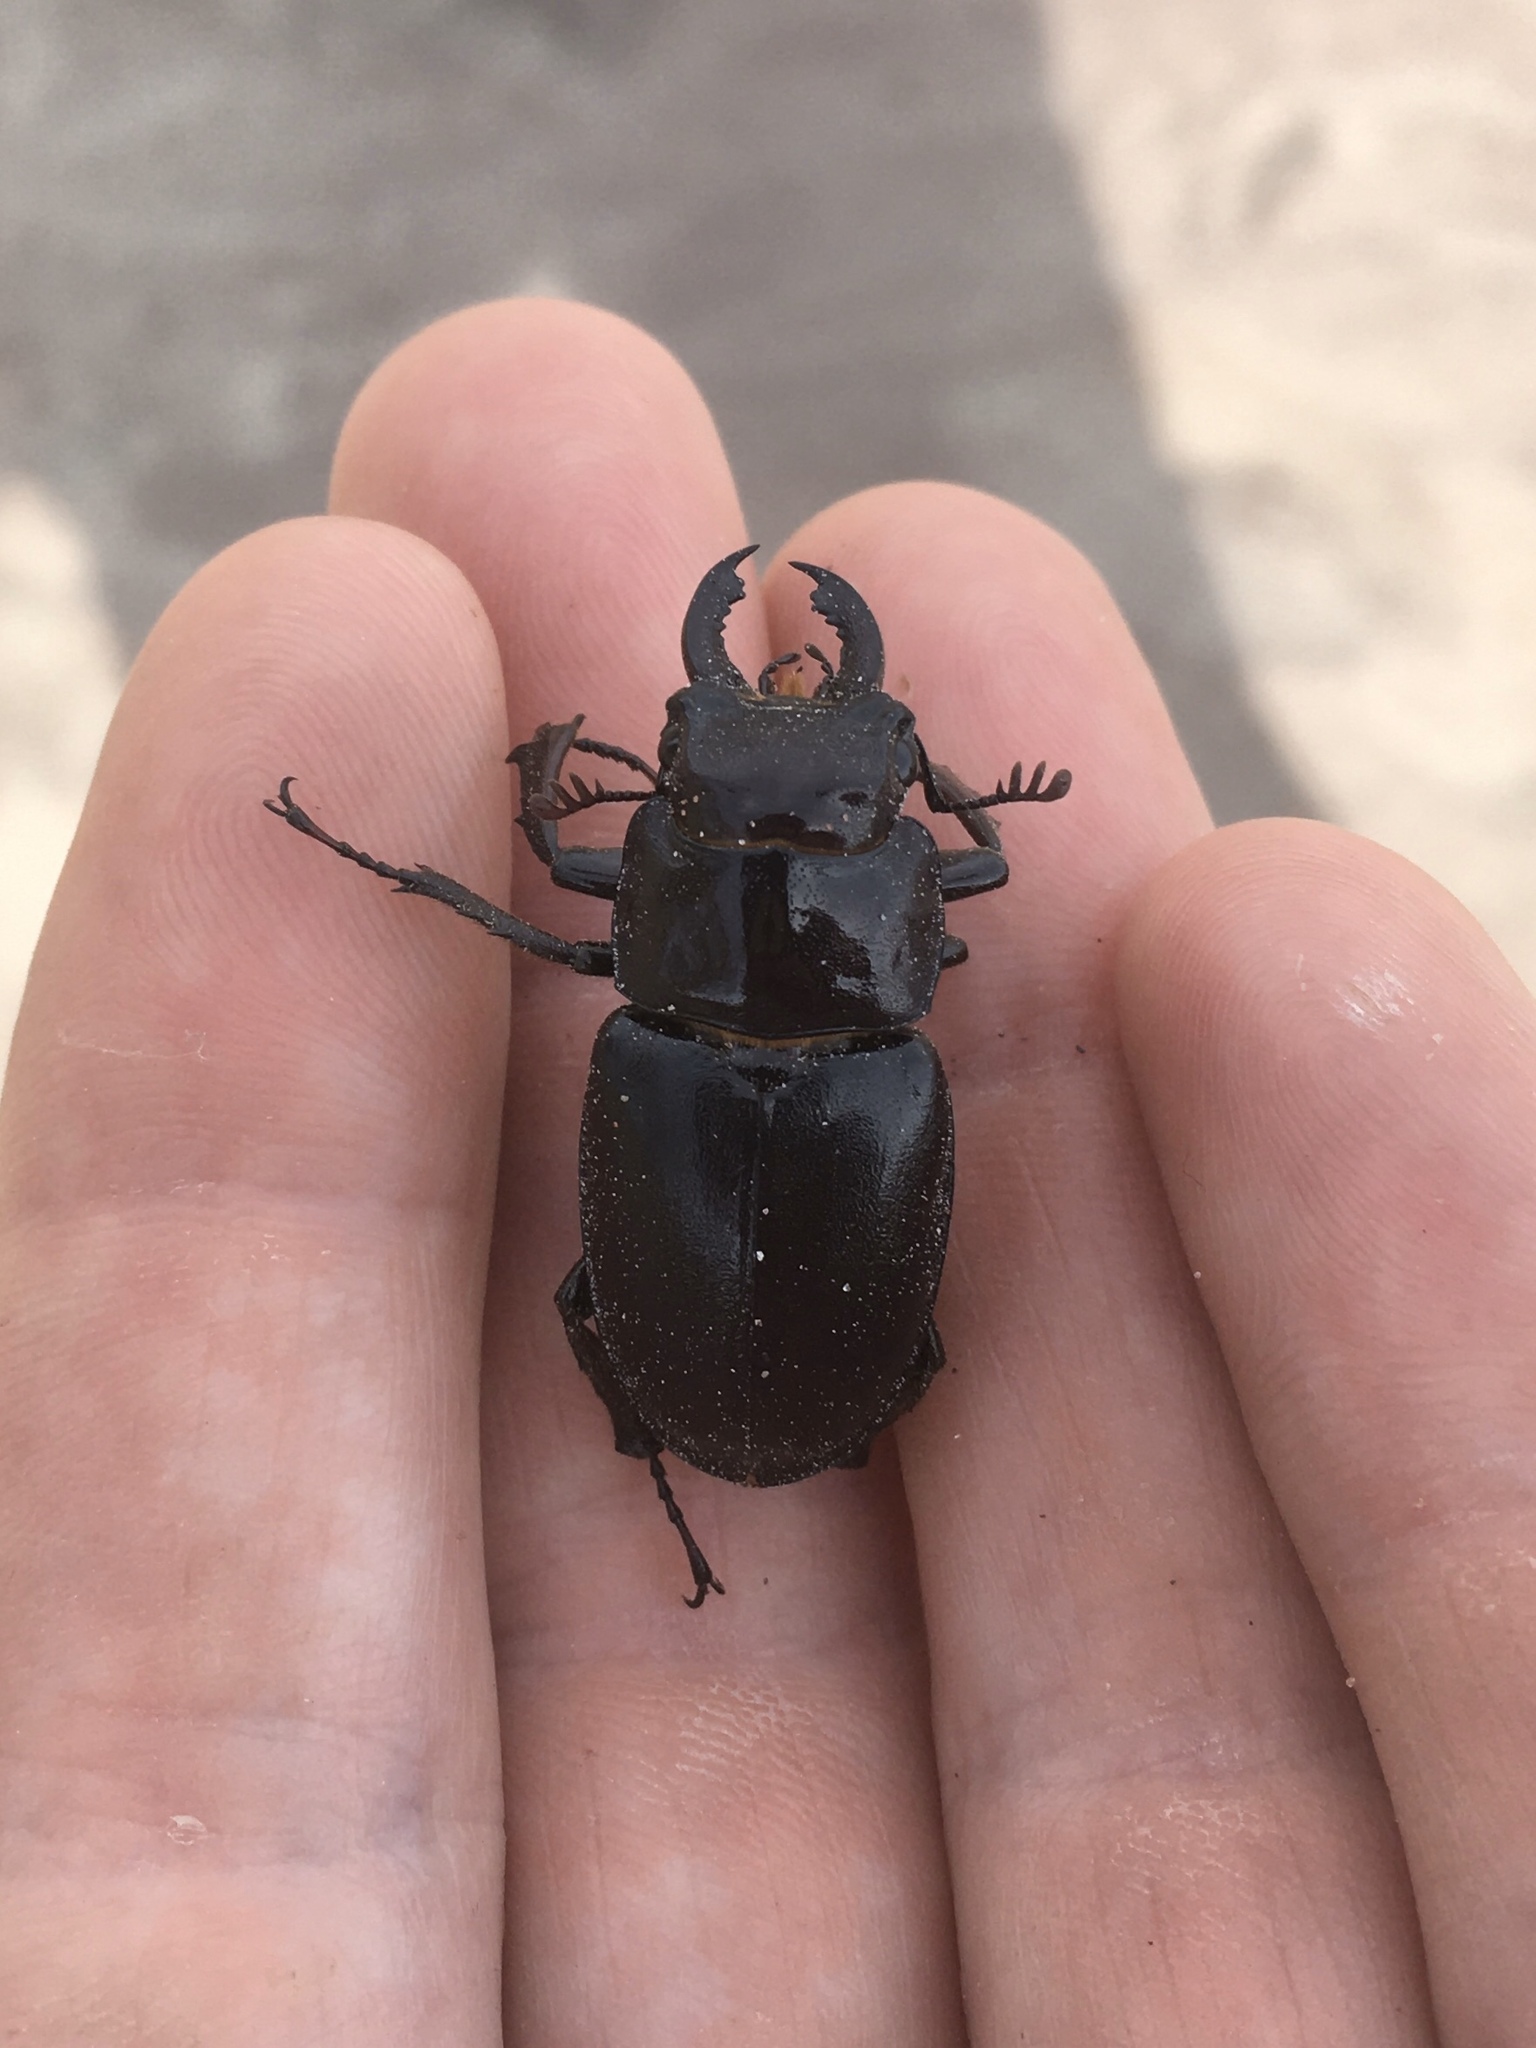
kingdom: Animalia
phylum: Arthropoda
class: Insecta
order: Coleoptera
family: Lucanidae
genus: Lucanus
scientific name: Lucanus placidus
